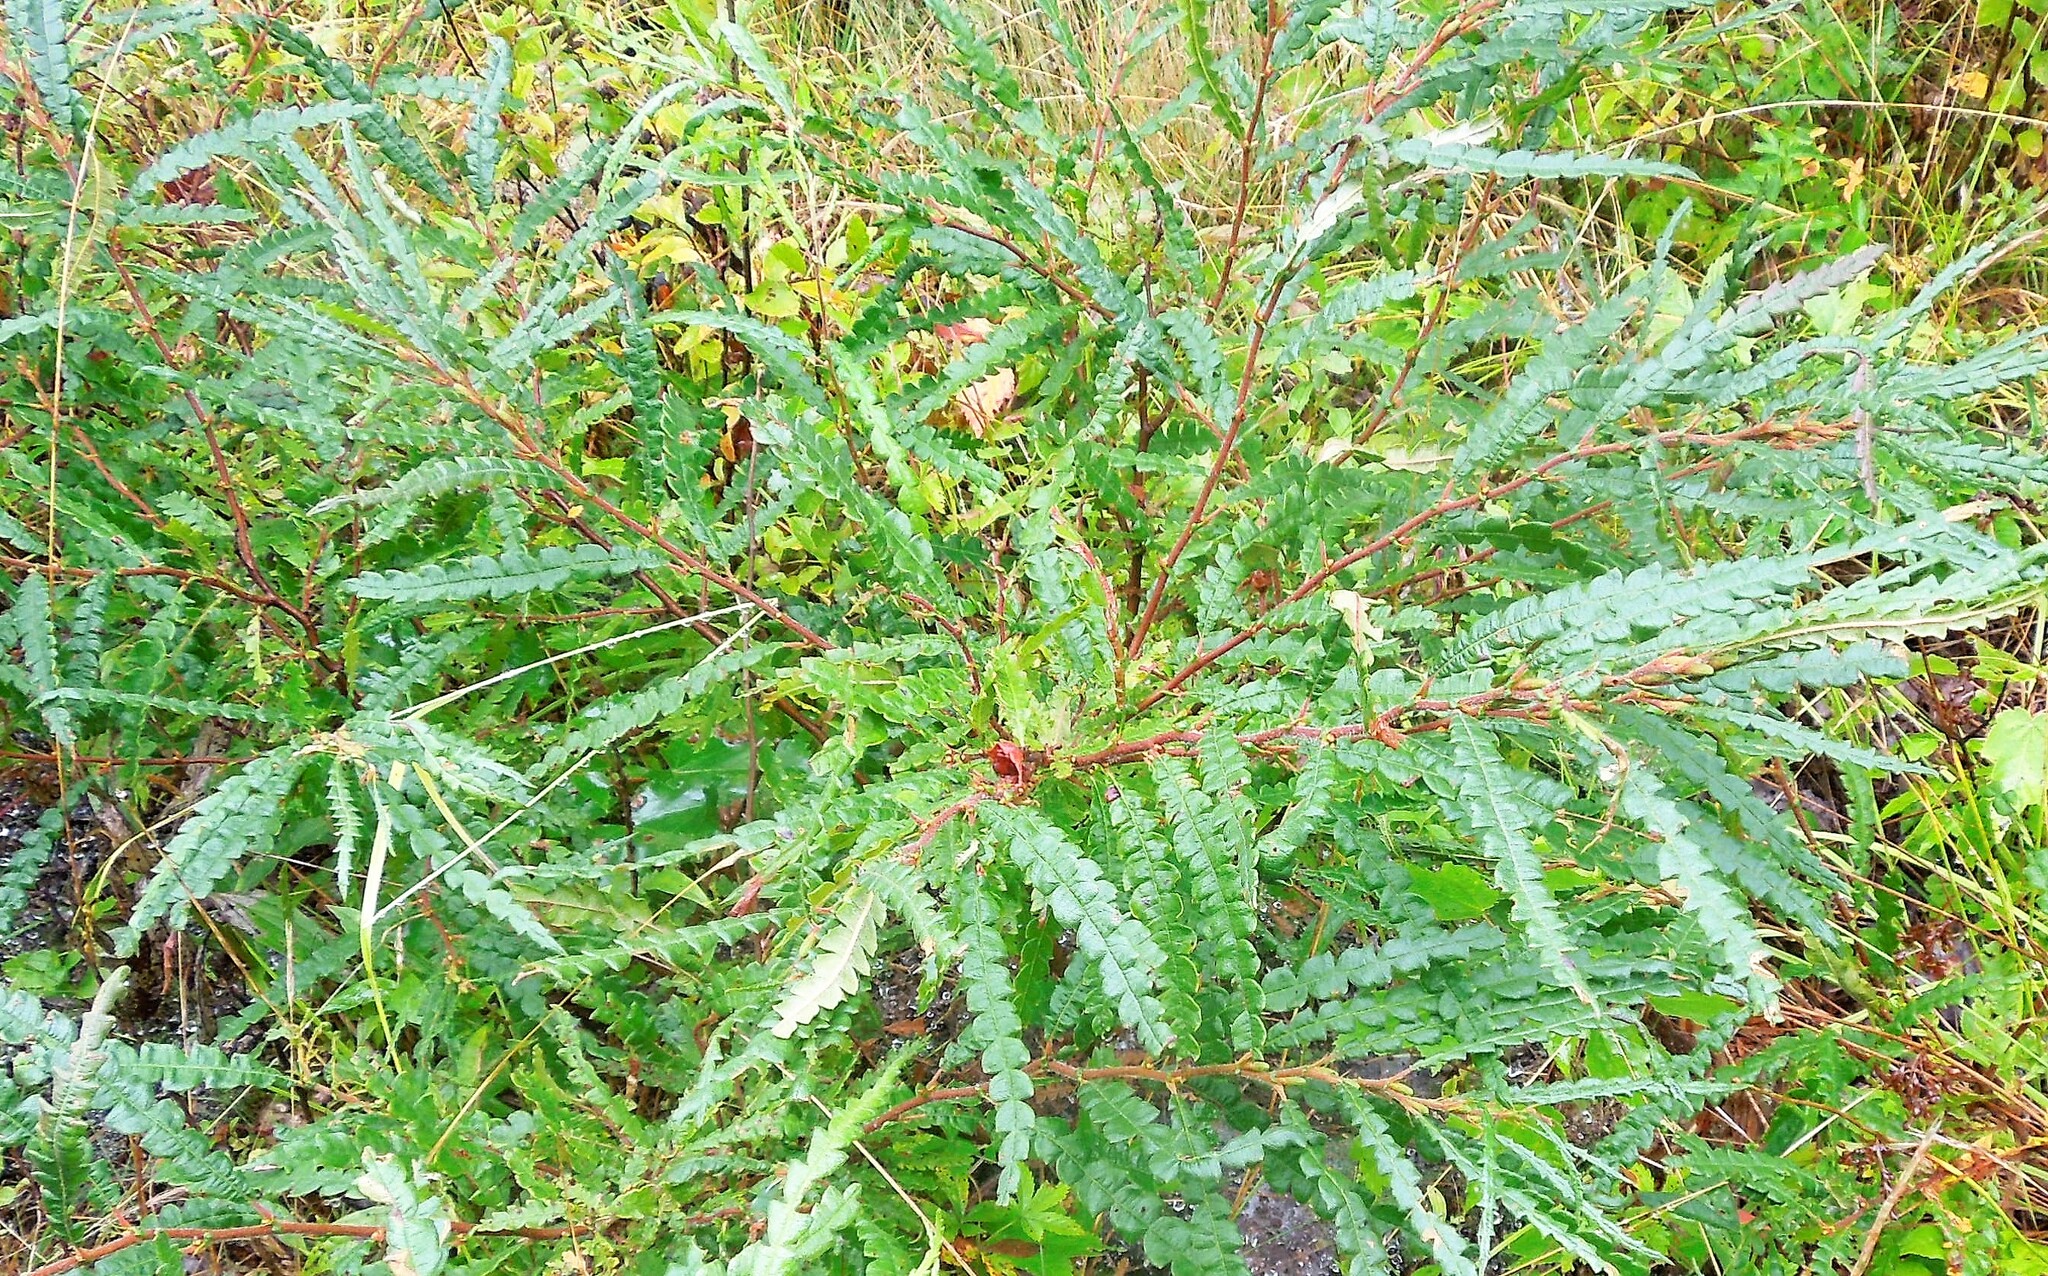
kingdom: Plantae
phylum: Tracheophyta
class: Magnoliopsida
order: Fagales
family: Myricaceae
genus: Comptonia
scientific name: Comptonia peregrina
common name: Sweet-fern
